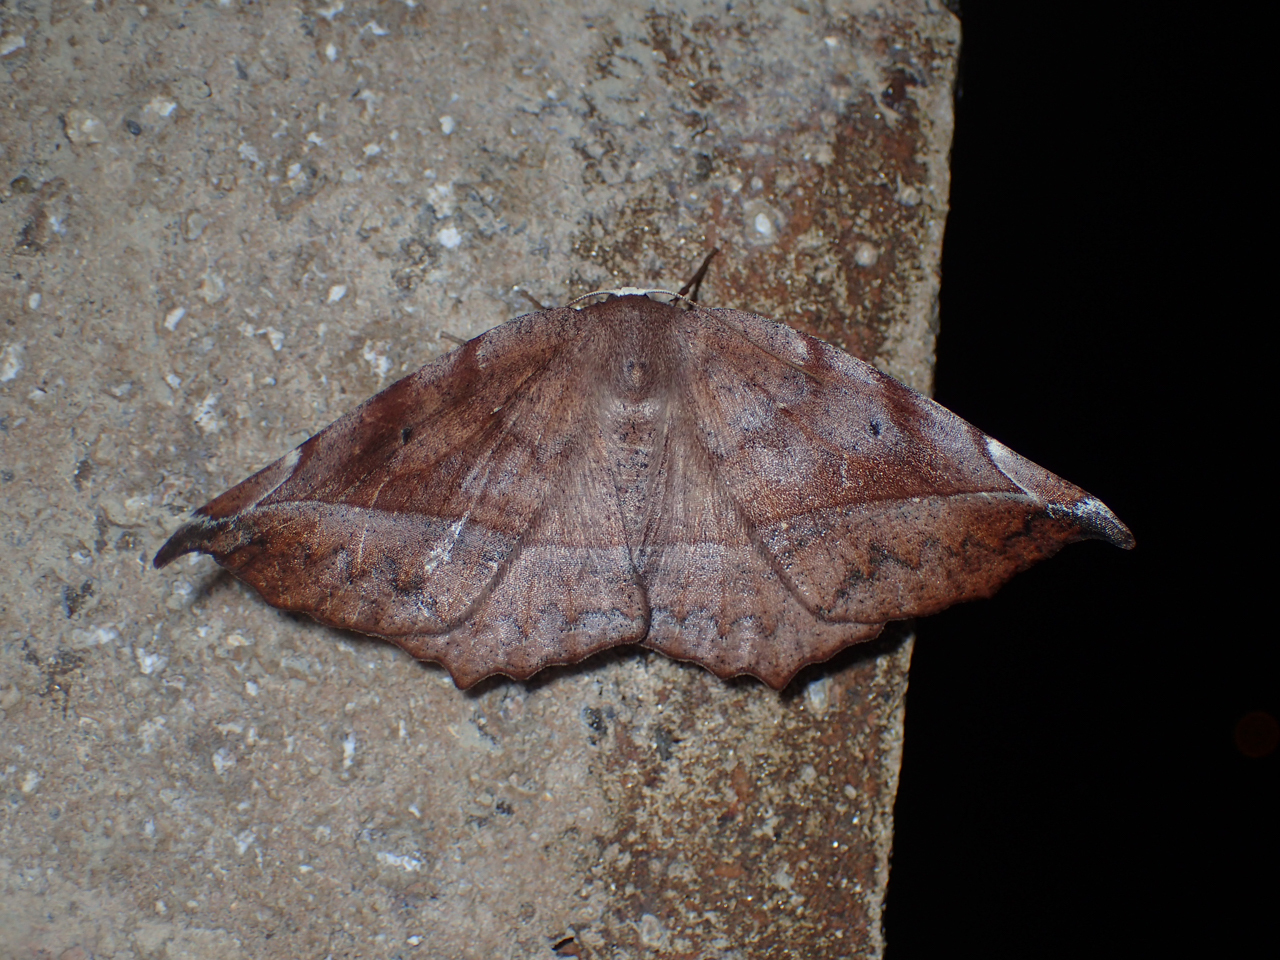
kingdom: Animalia
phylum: Arthropoda
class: Insecta
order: Lepidoptera
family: Geometridae
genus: Eutrapela
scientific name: Eutrapela clemataria
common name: Curved-toothed geometer
